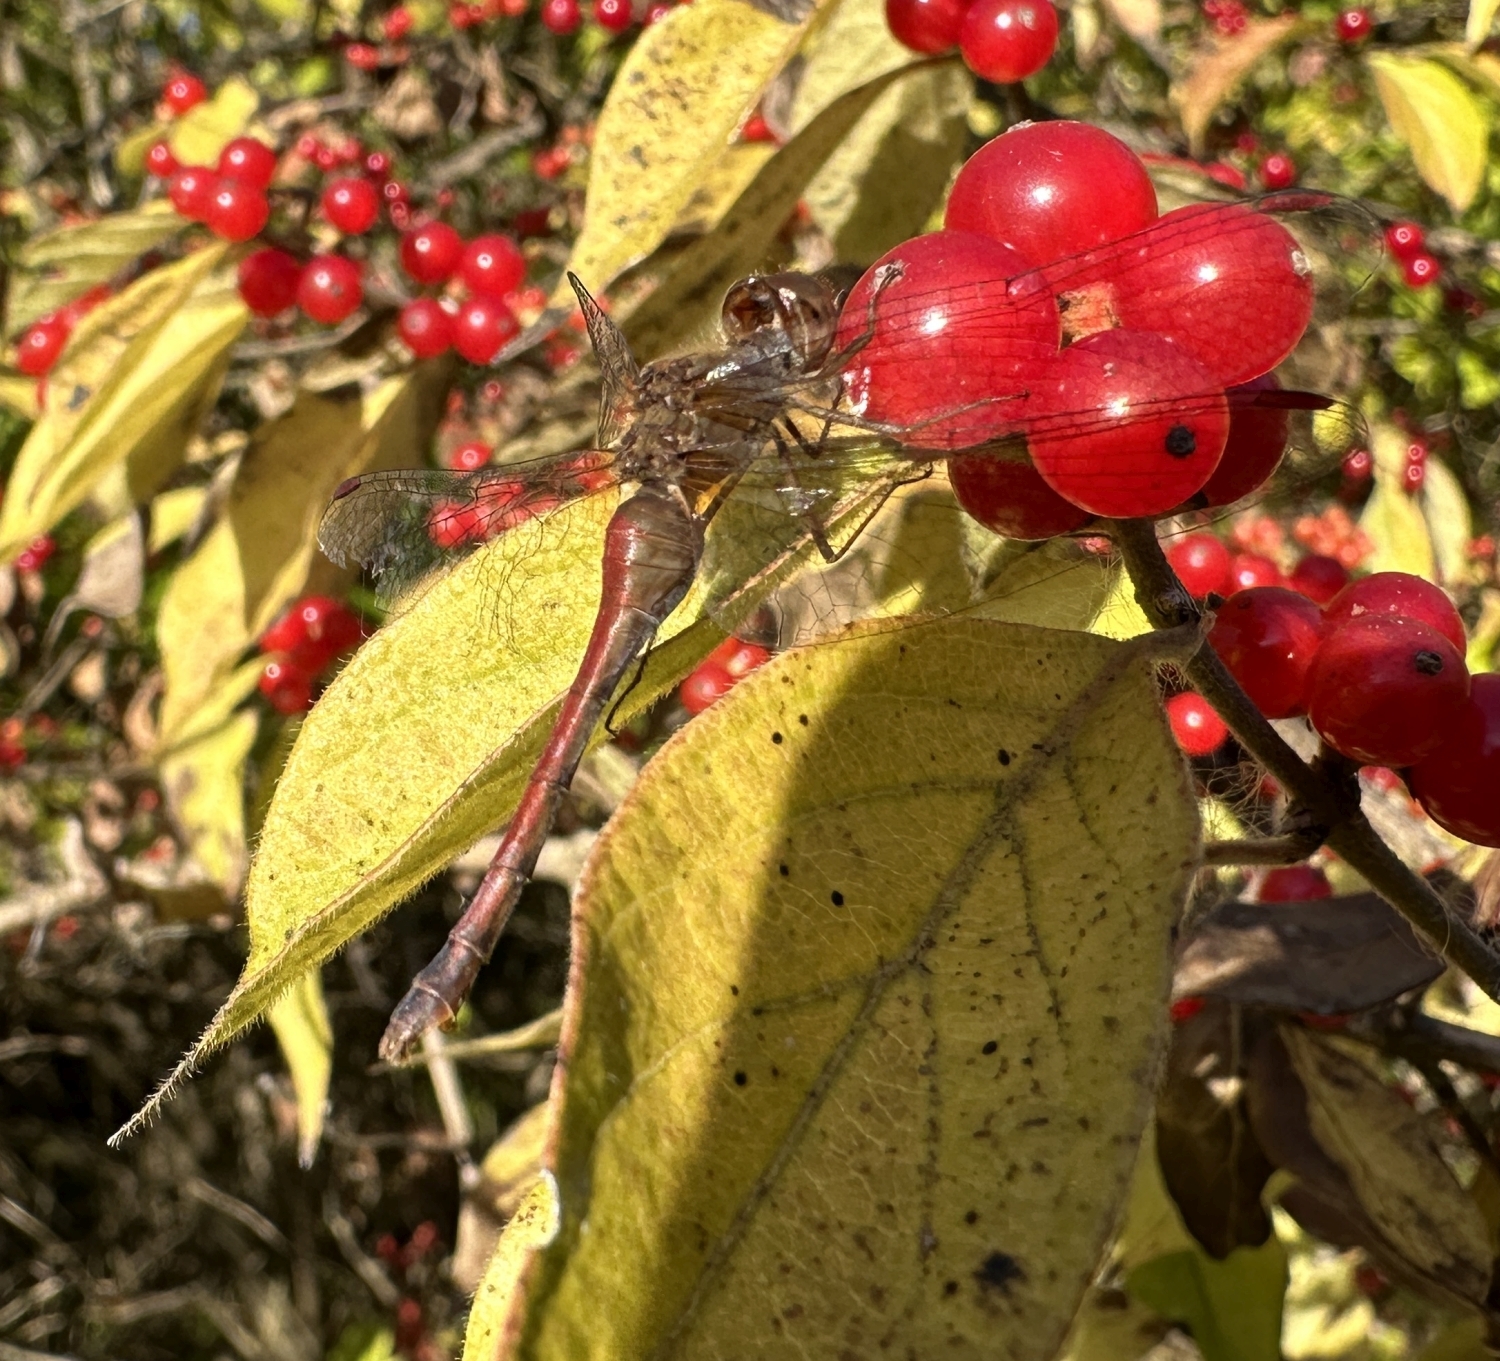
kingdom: Animalia
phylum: Arthropoda
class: Insecta
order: Odonata
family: Libellulidae
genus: Sympetrum
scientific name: Sympetrum vicinum
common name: Autumn meadowhawk
